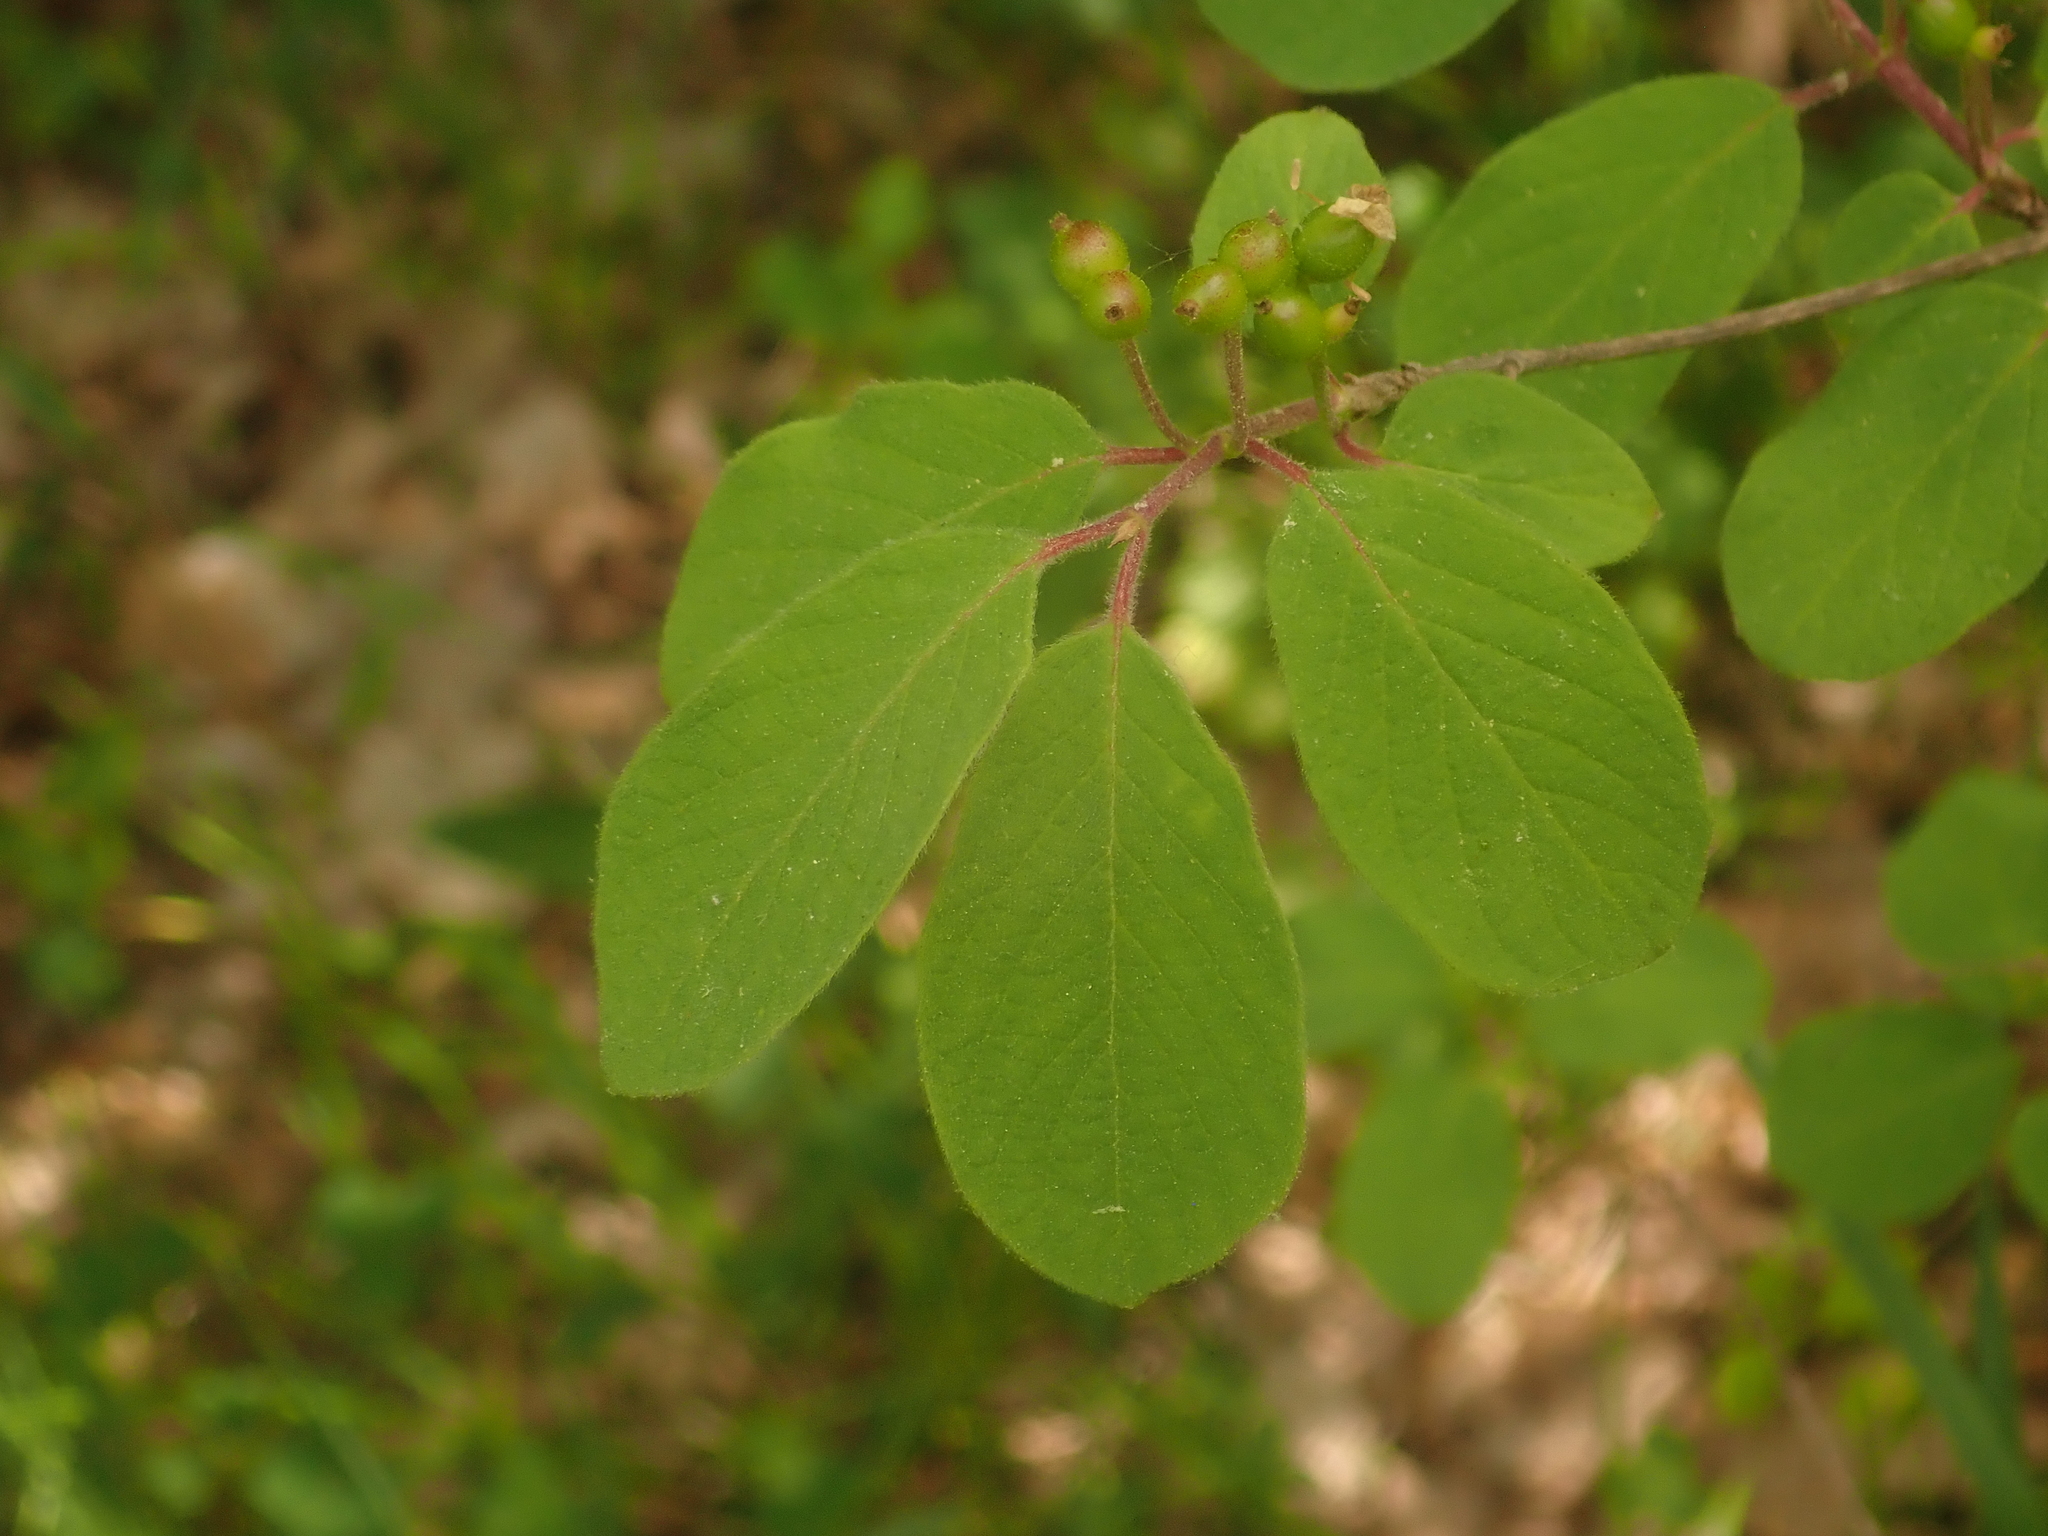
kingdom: Plantae
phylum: Tracheophyta
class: Magnoliopsida
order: Dipsacales
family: Caprifoliaceae
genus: Lonicera
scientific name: Lonicera xylosteum
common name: Fly honeysuckle
